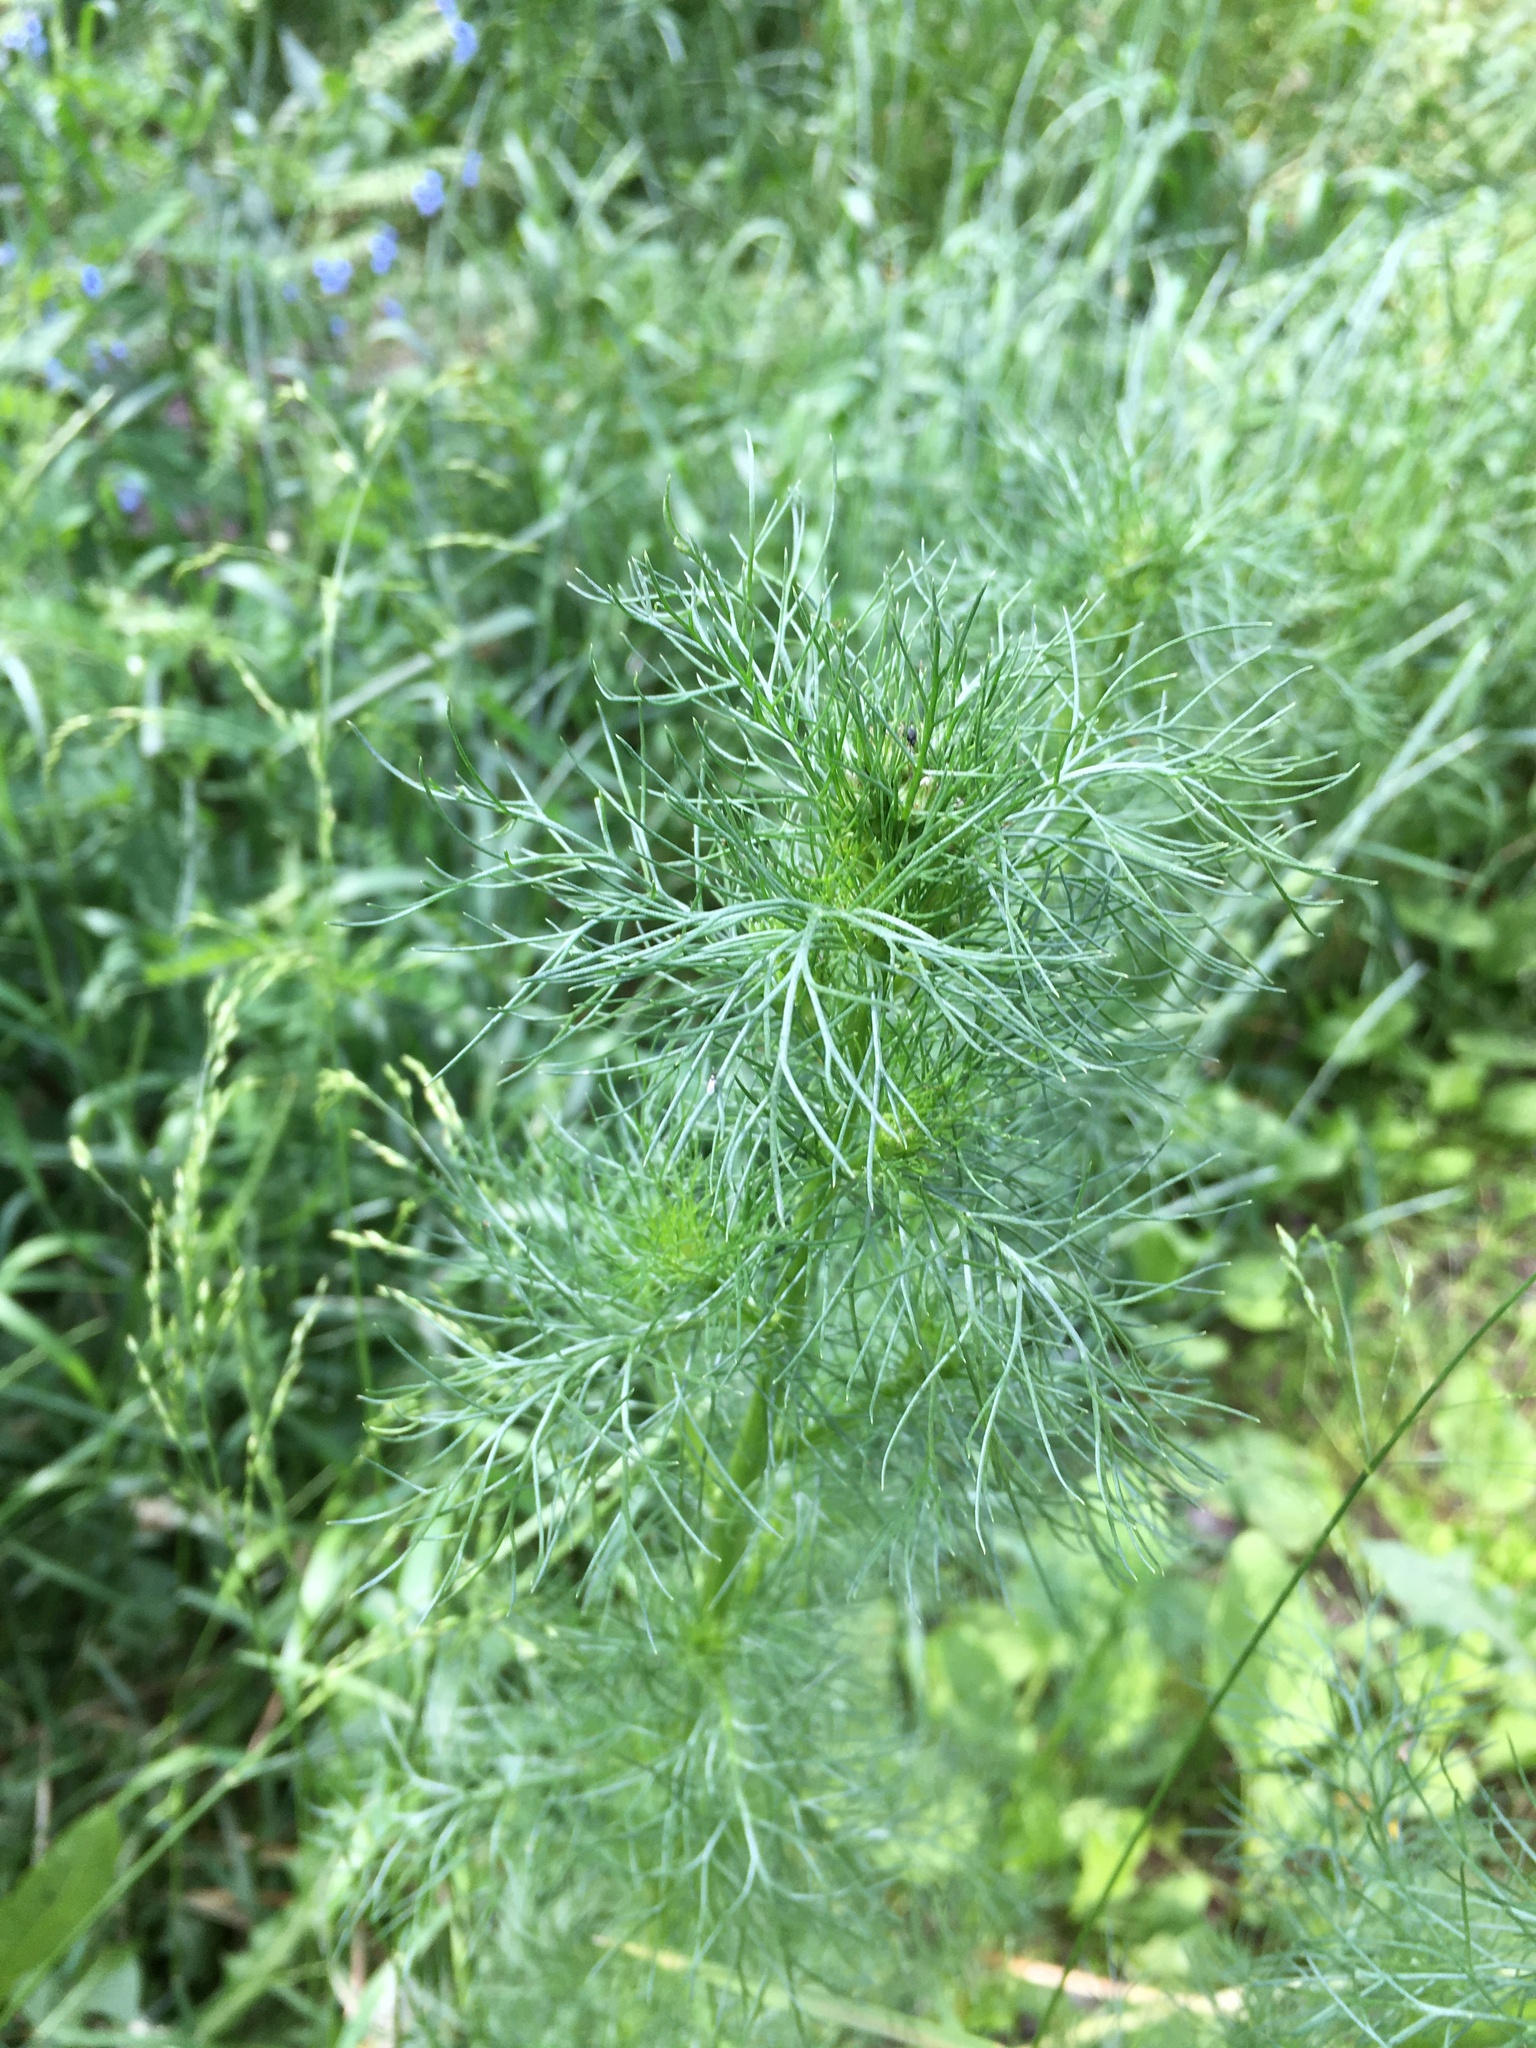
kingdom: Plantae
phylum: Tracheophyta
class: Magnoliopsida
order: Asterales
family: Asteraceae
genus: Tripleurospermum
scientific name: Tripleurospermum inodorum
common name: Scentless mayweed
